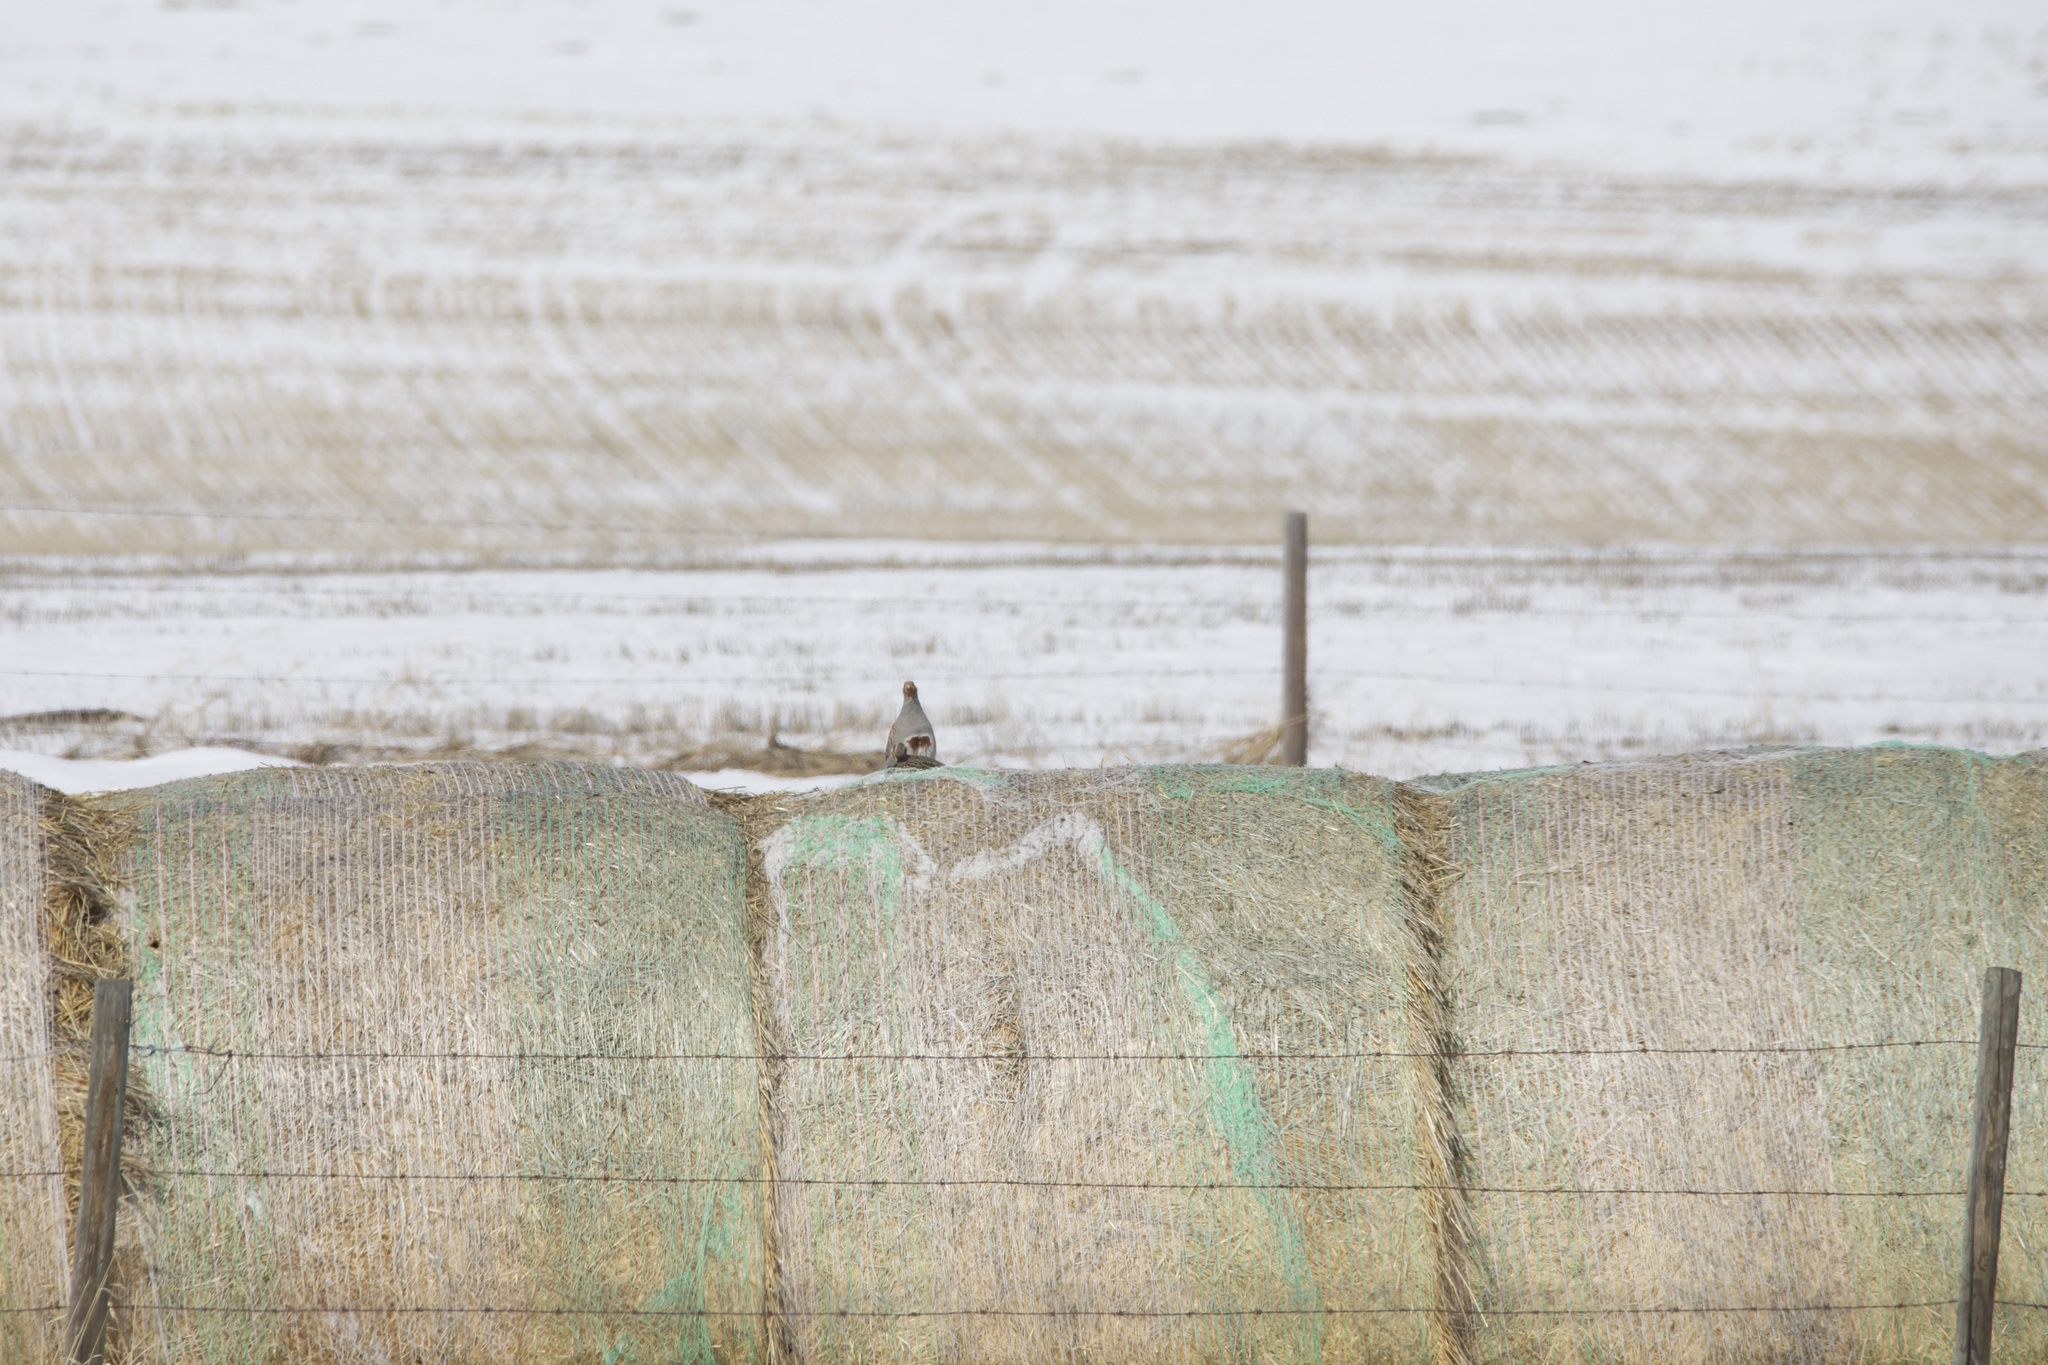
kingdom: Animalia
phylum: Chordata
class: Aves
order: Galliformes
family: Phasianidae
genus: Perdix
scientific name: Perdix perdix
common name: Grey partridge
